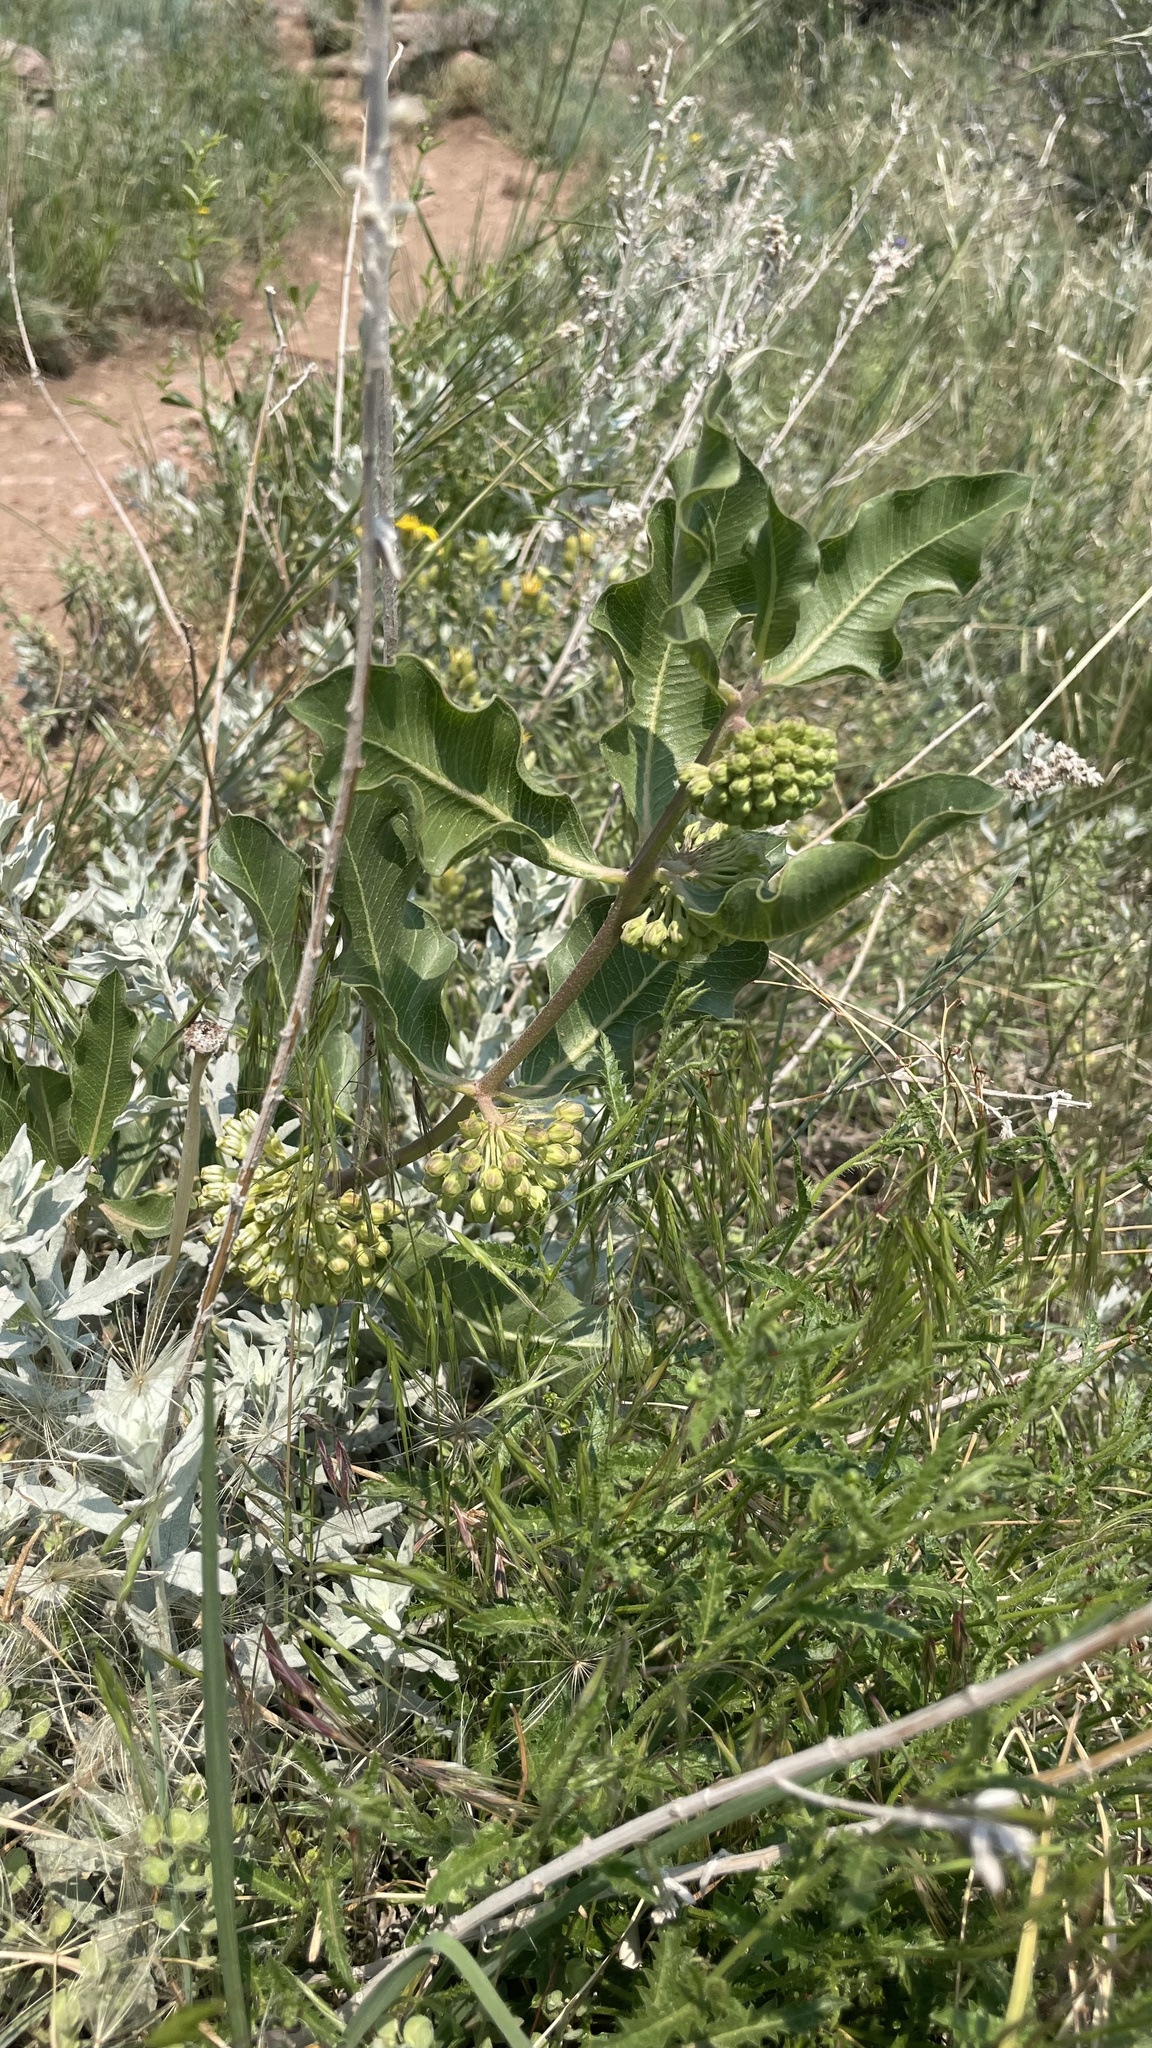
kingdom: Plantae
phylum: Tracheophyta
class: Magnoliopsida
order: Gentianales
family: Apocynaceae
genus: Asclepias
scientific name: Asclepias viridiflora
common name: Green comet milkweed
